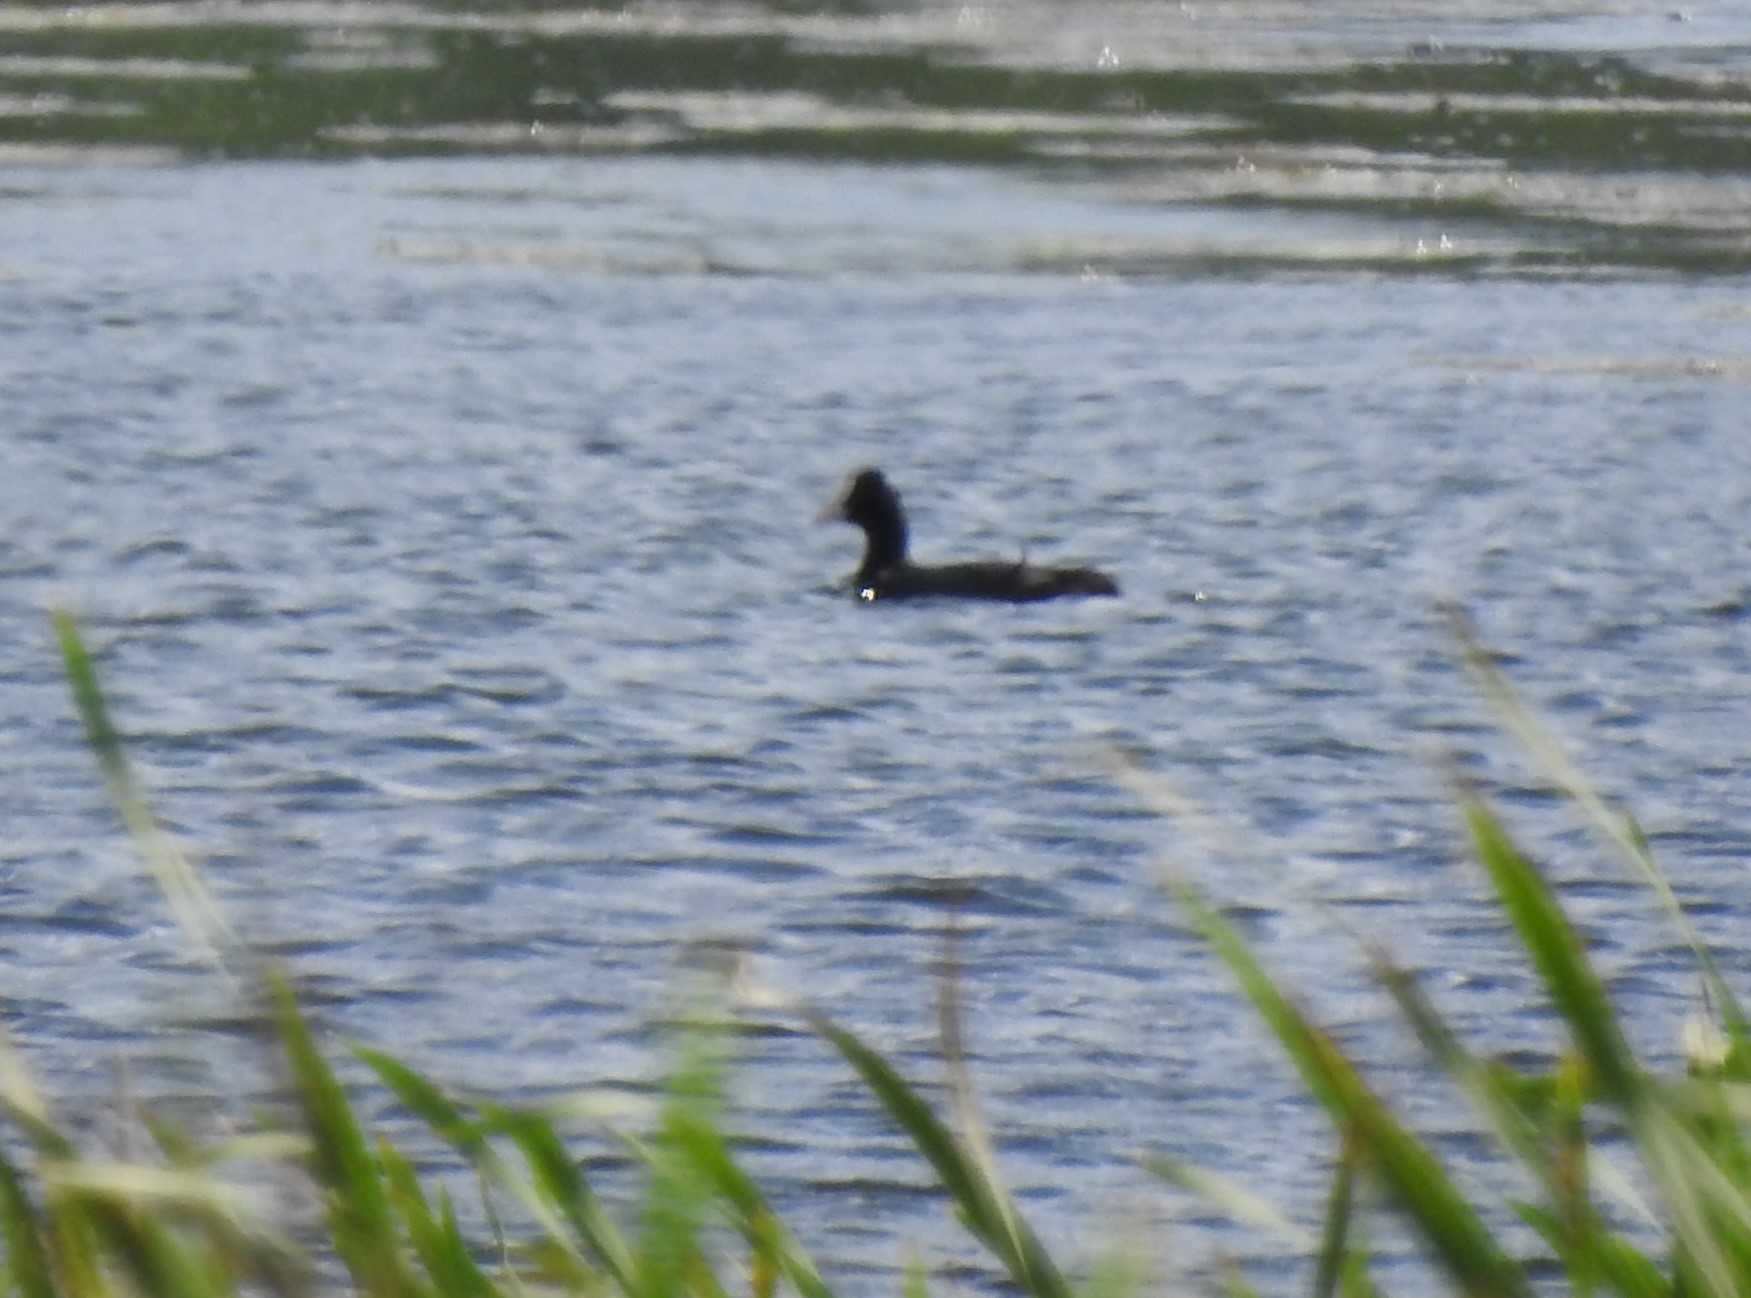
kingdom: Animalia
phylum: Chordata
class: Aves
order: Gruiformes
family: Rallidae
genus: Fulica
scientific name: Fulica atra
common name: Eurasian coot
